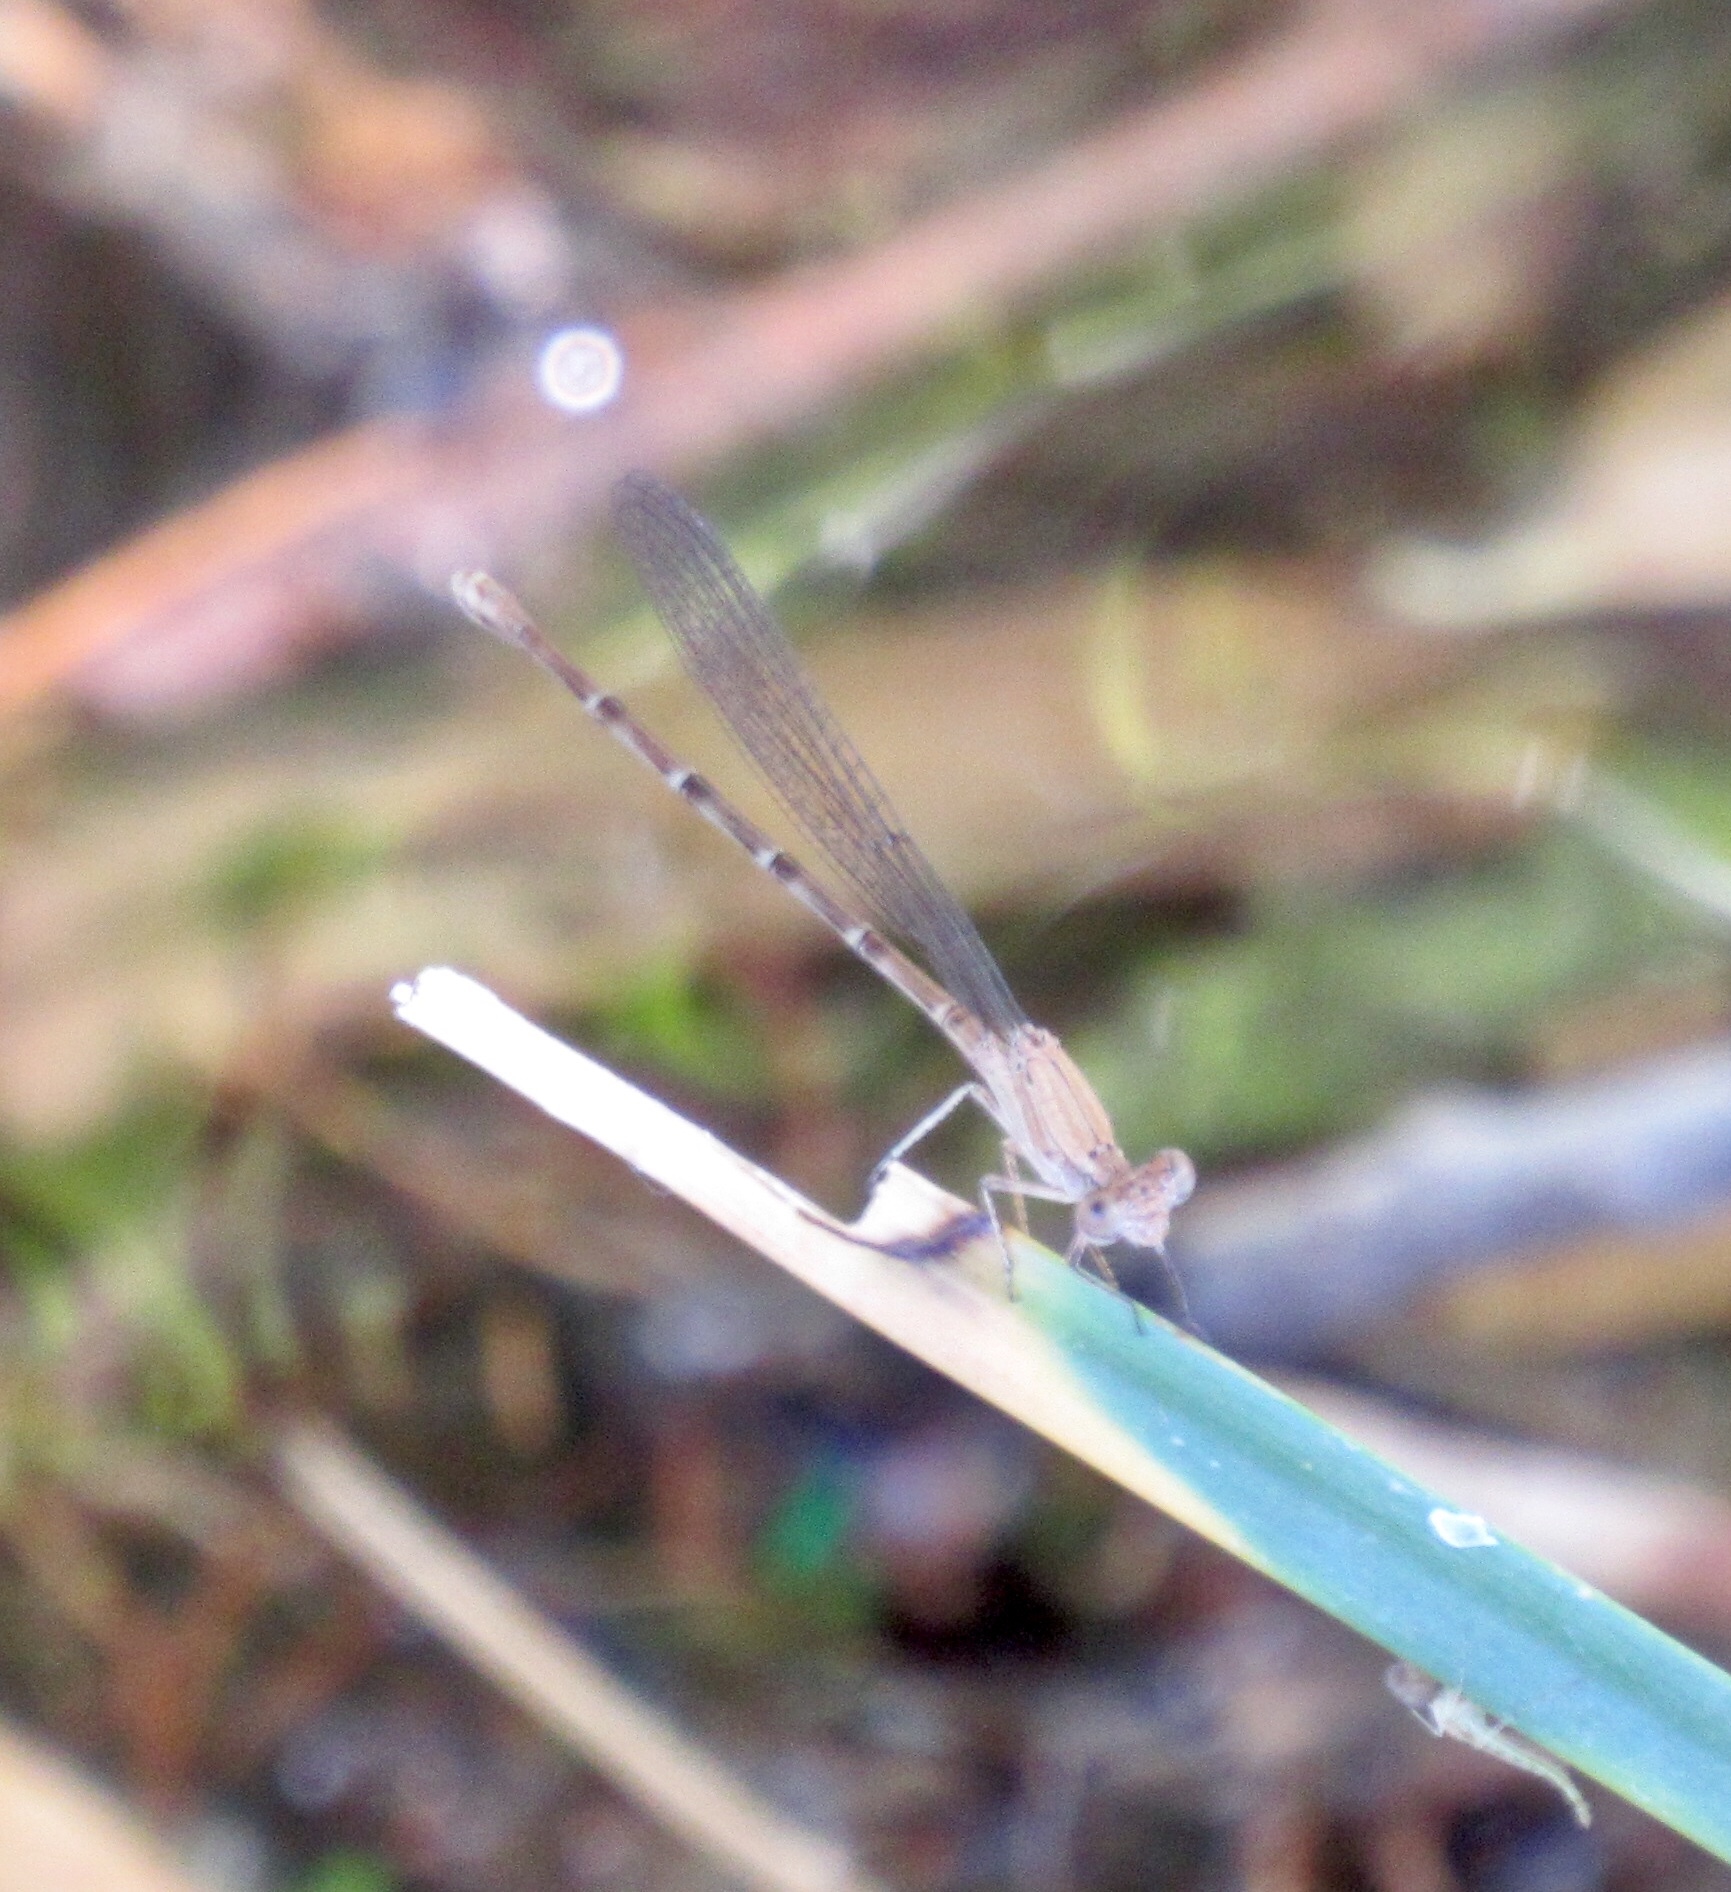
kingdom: Animalia
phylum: Arthropoda
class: Insecta
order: Odonata
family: Coenagrionidae
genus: Argia
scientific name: Argia sedula
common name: Blue-ringed dancer
